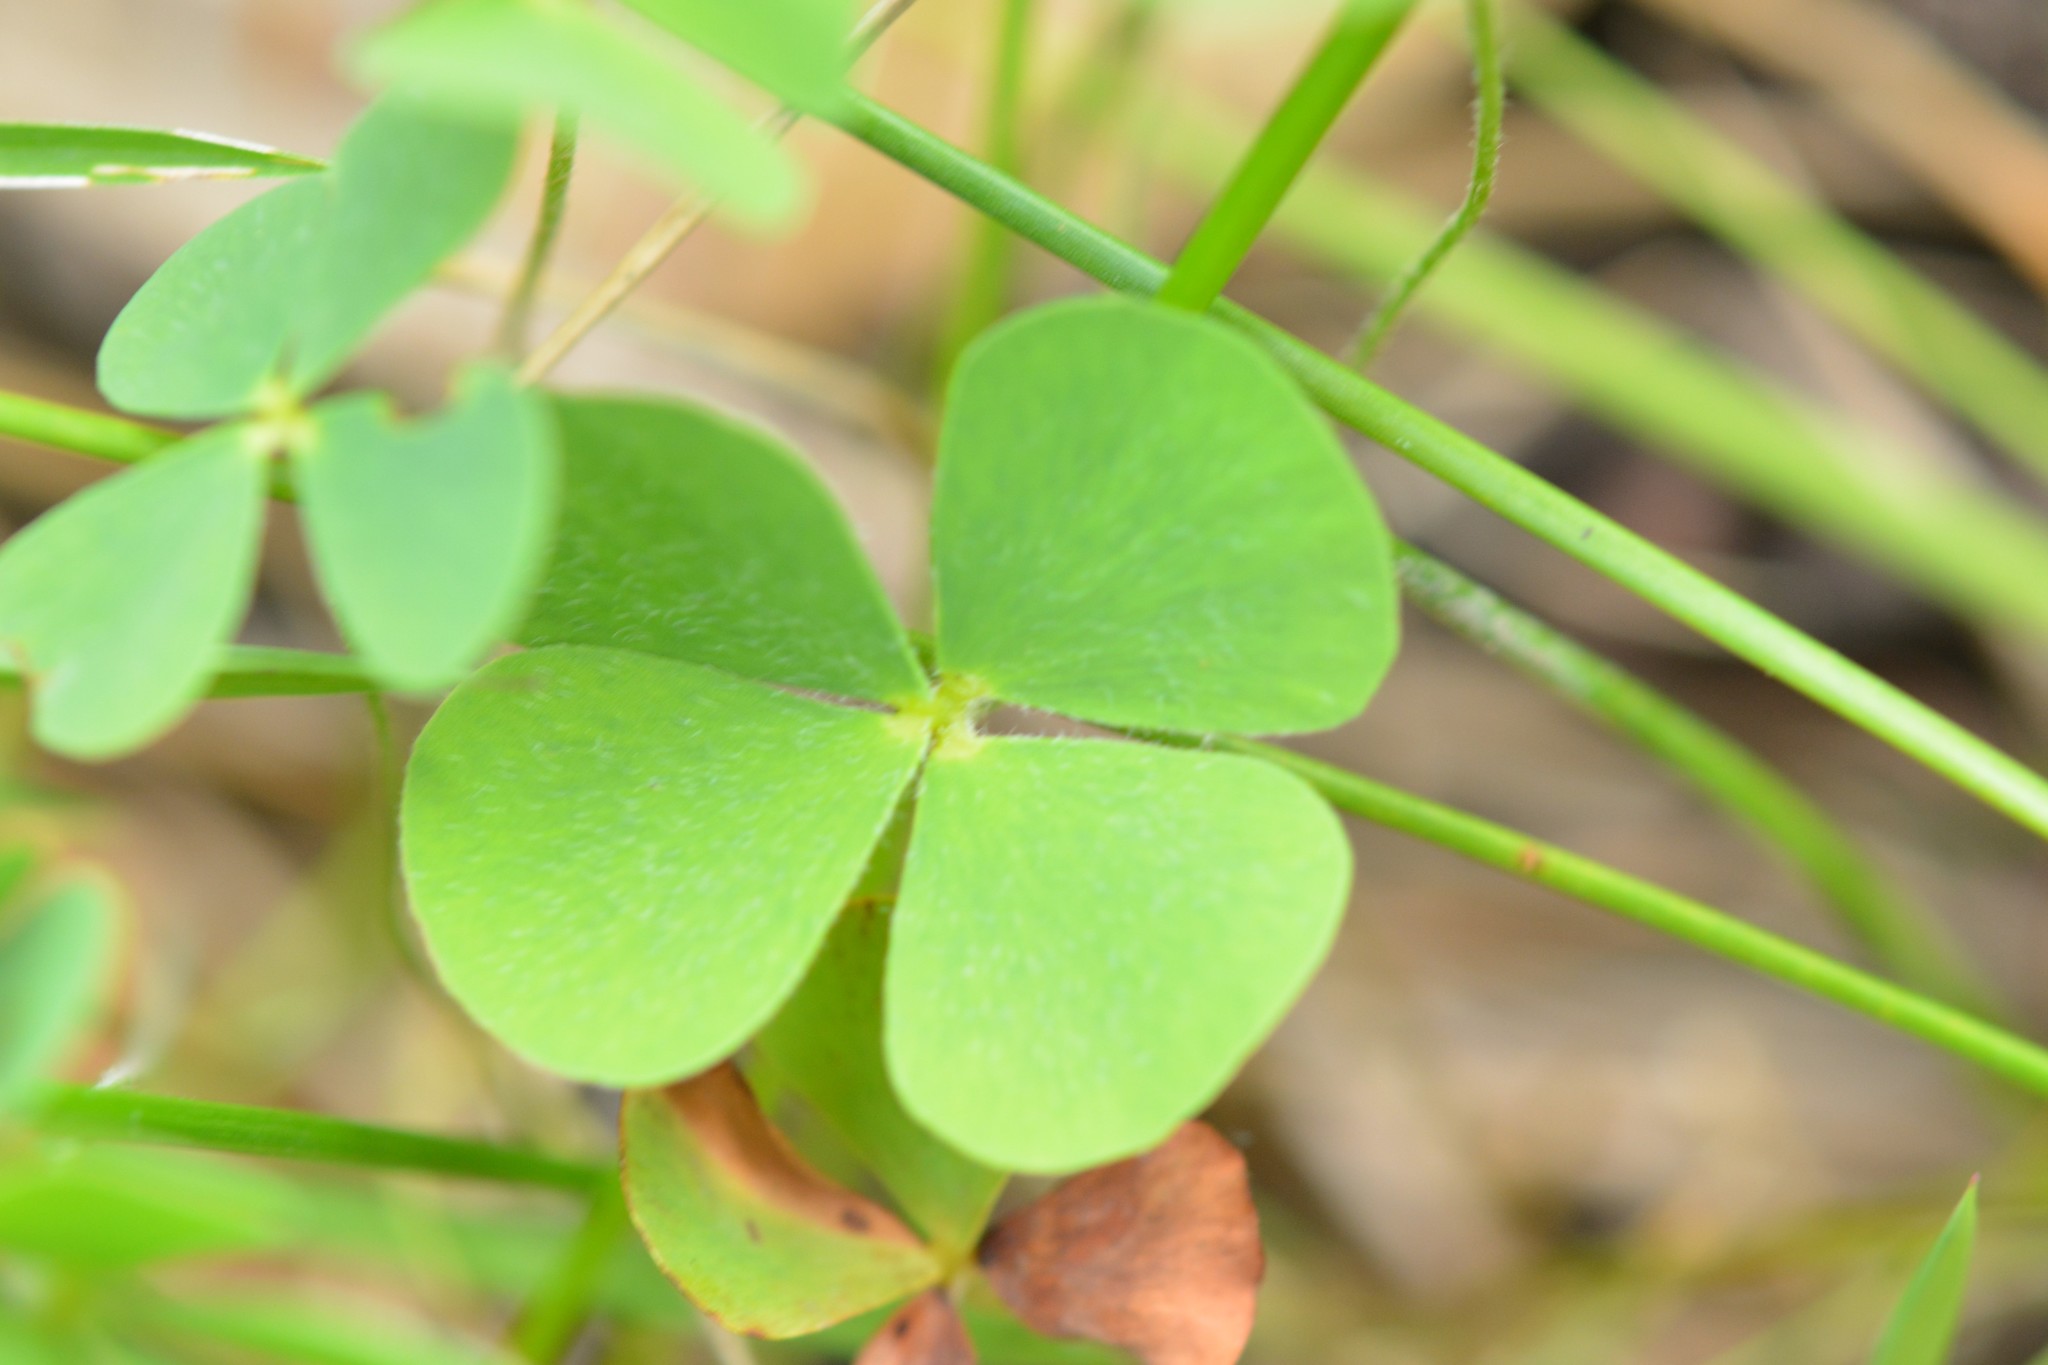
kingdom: Plantae
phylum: Tracheophyta
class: Polypodiopsida
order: Salviniales
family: Marsileaceae
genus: Marsilea
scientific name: Marsilea mollis
